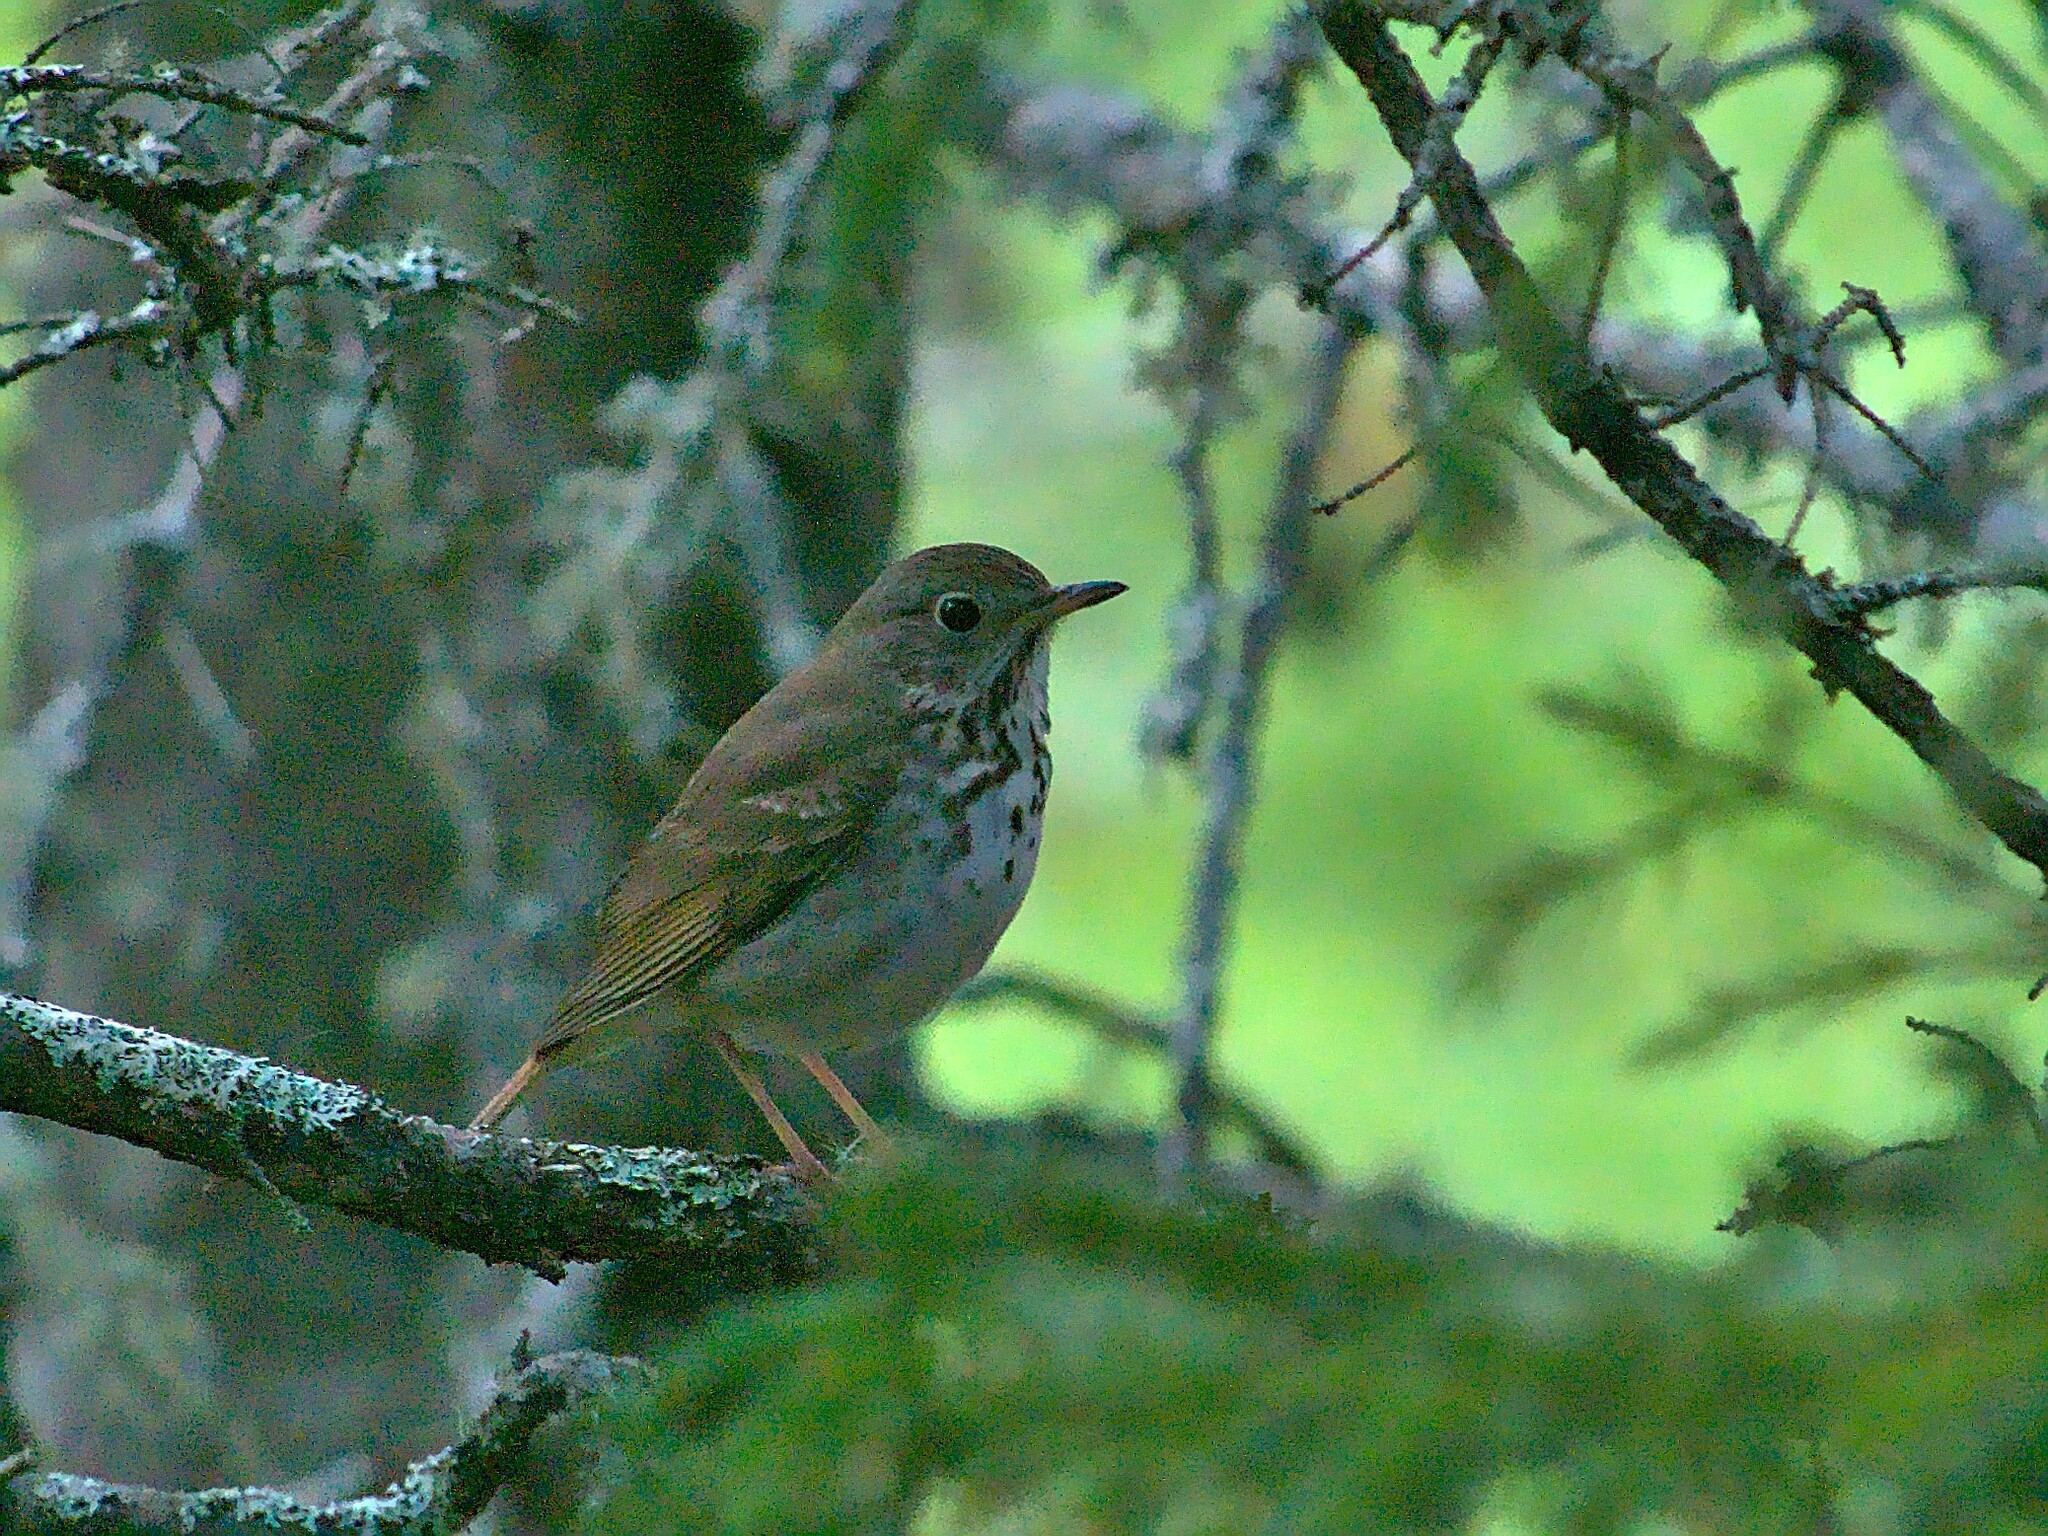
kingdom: Animalia
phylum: Chordata
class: Aves
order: Passeriformes
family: Turdidae
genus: Catharus
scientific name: Catharus guttatus
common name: Hermit thrush
